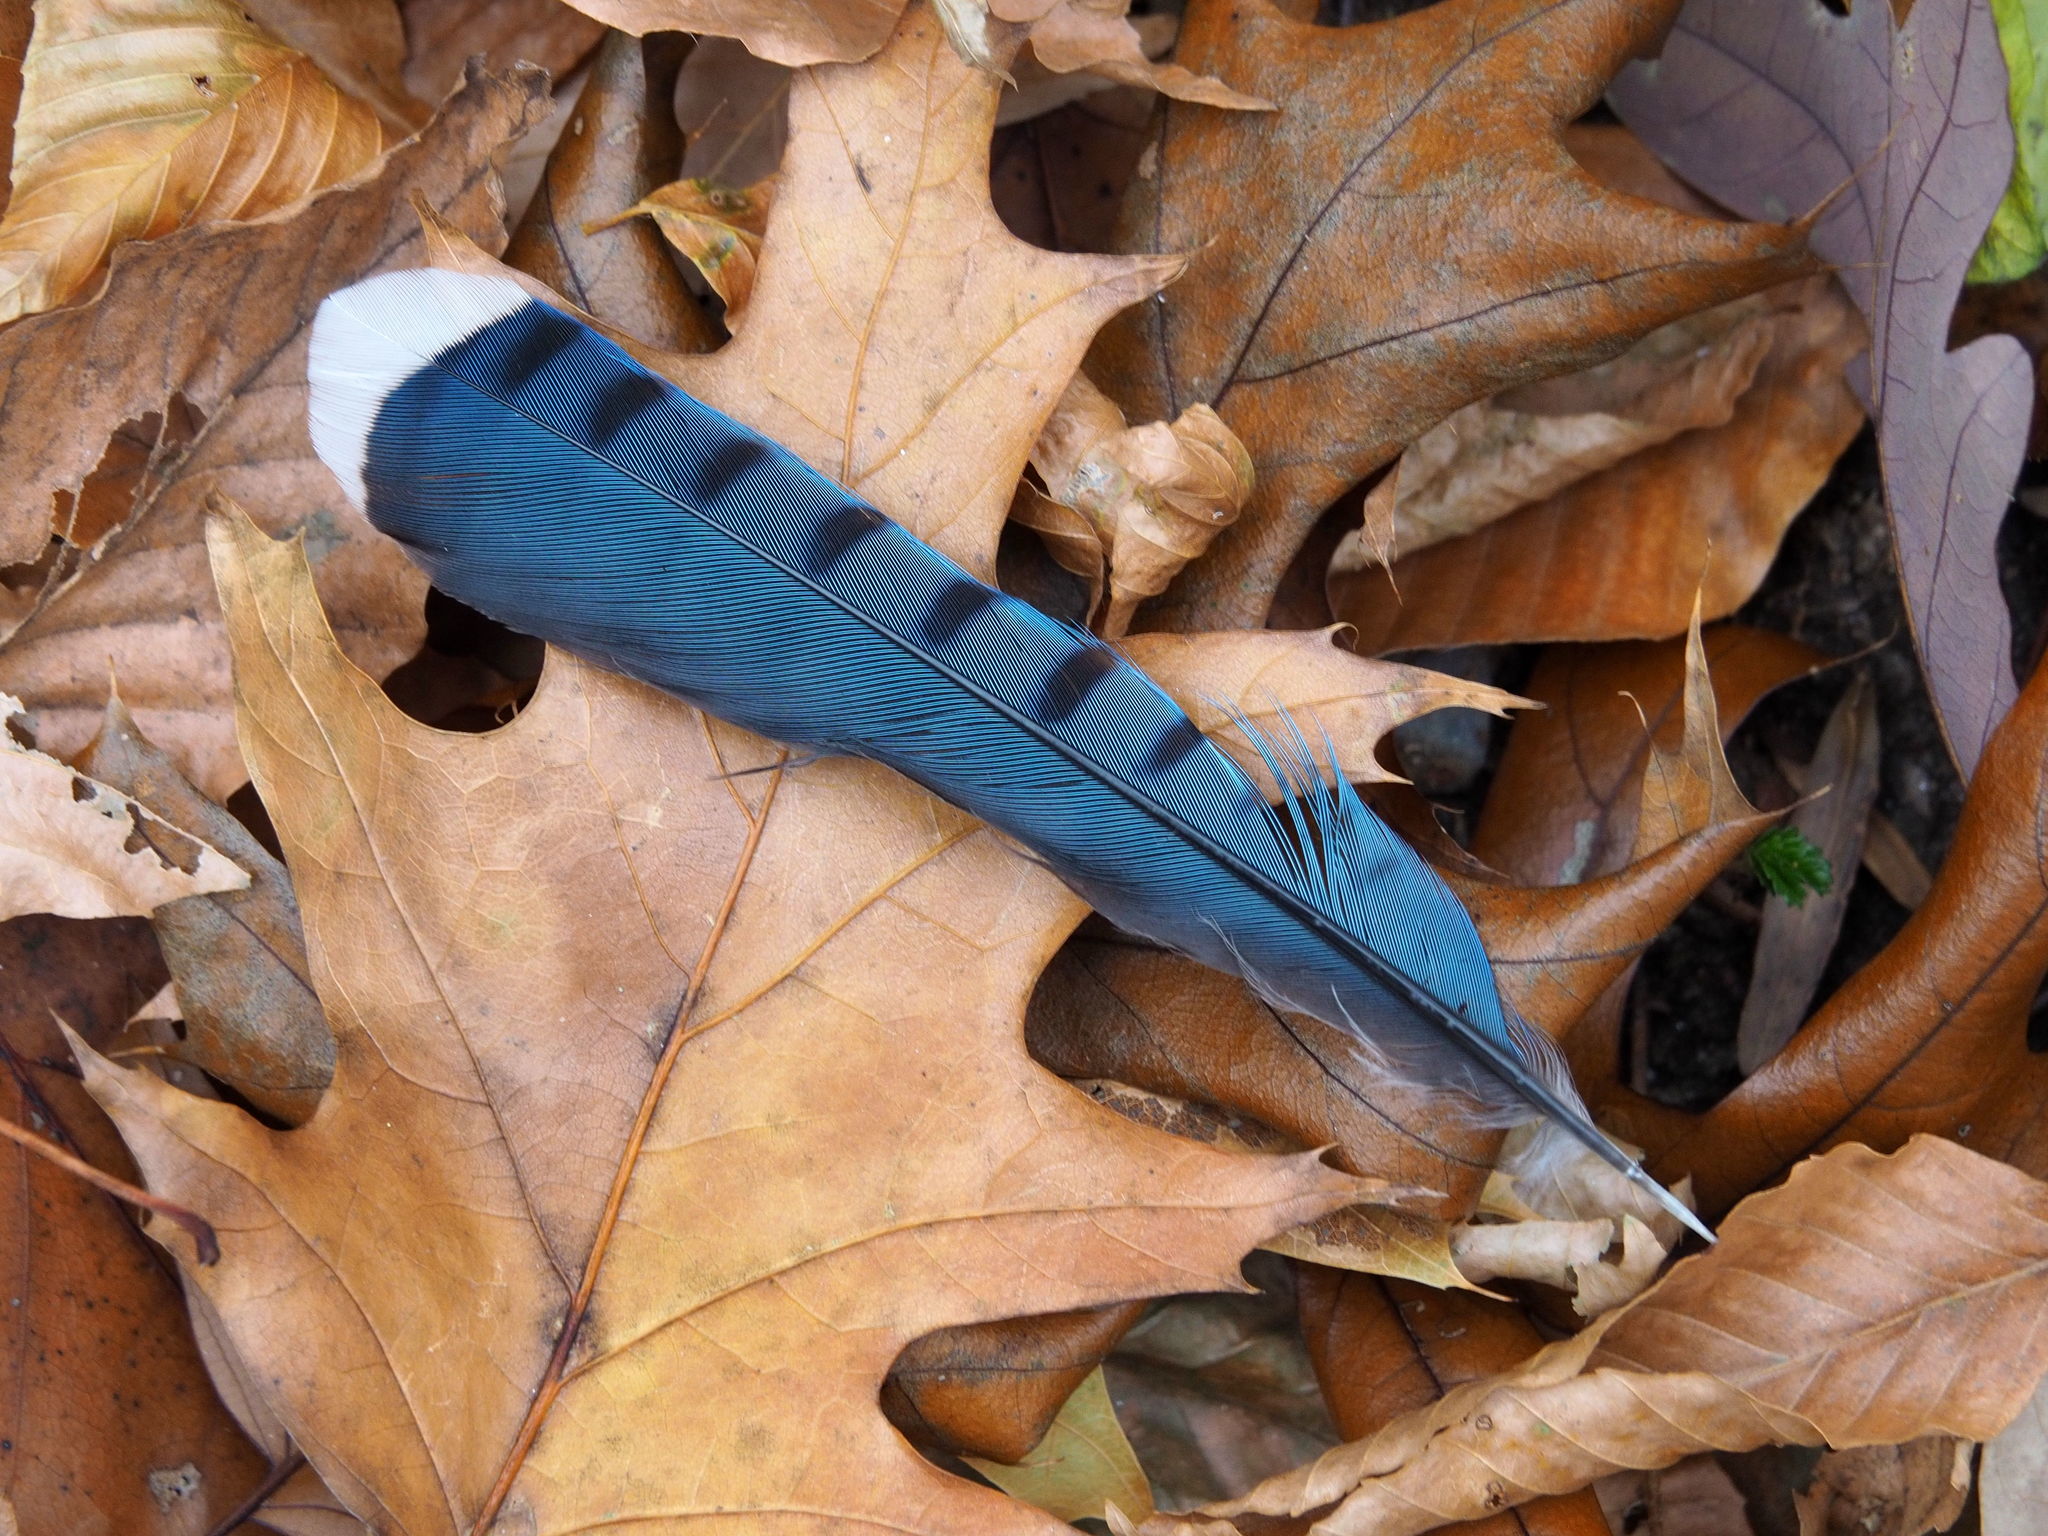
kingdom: Animalia
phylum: Chordata
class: Aves
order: Passeriformes
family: Corvidae
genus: Cyanocitta
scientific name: Cyanocitta cristata
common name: Blue jay
